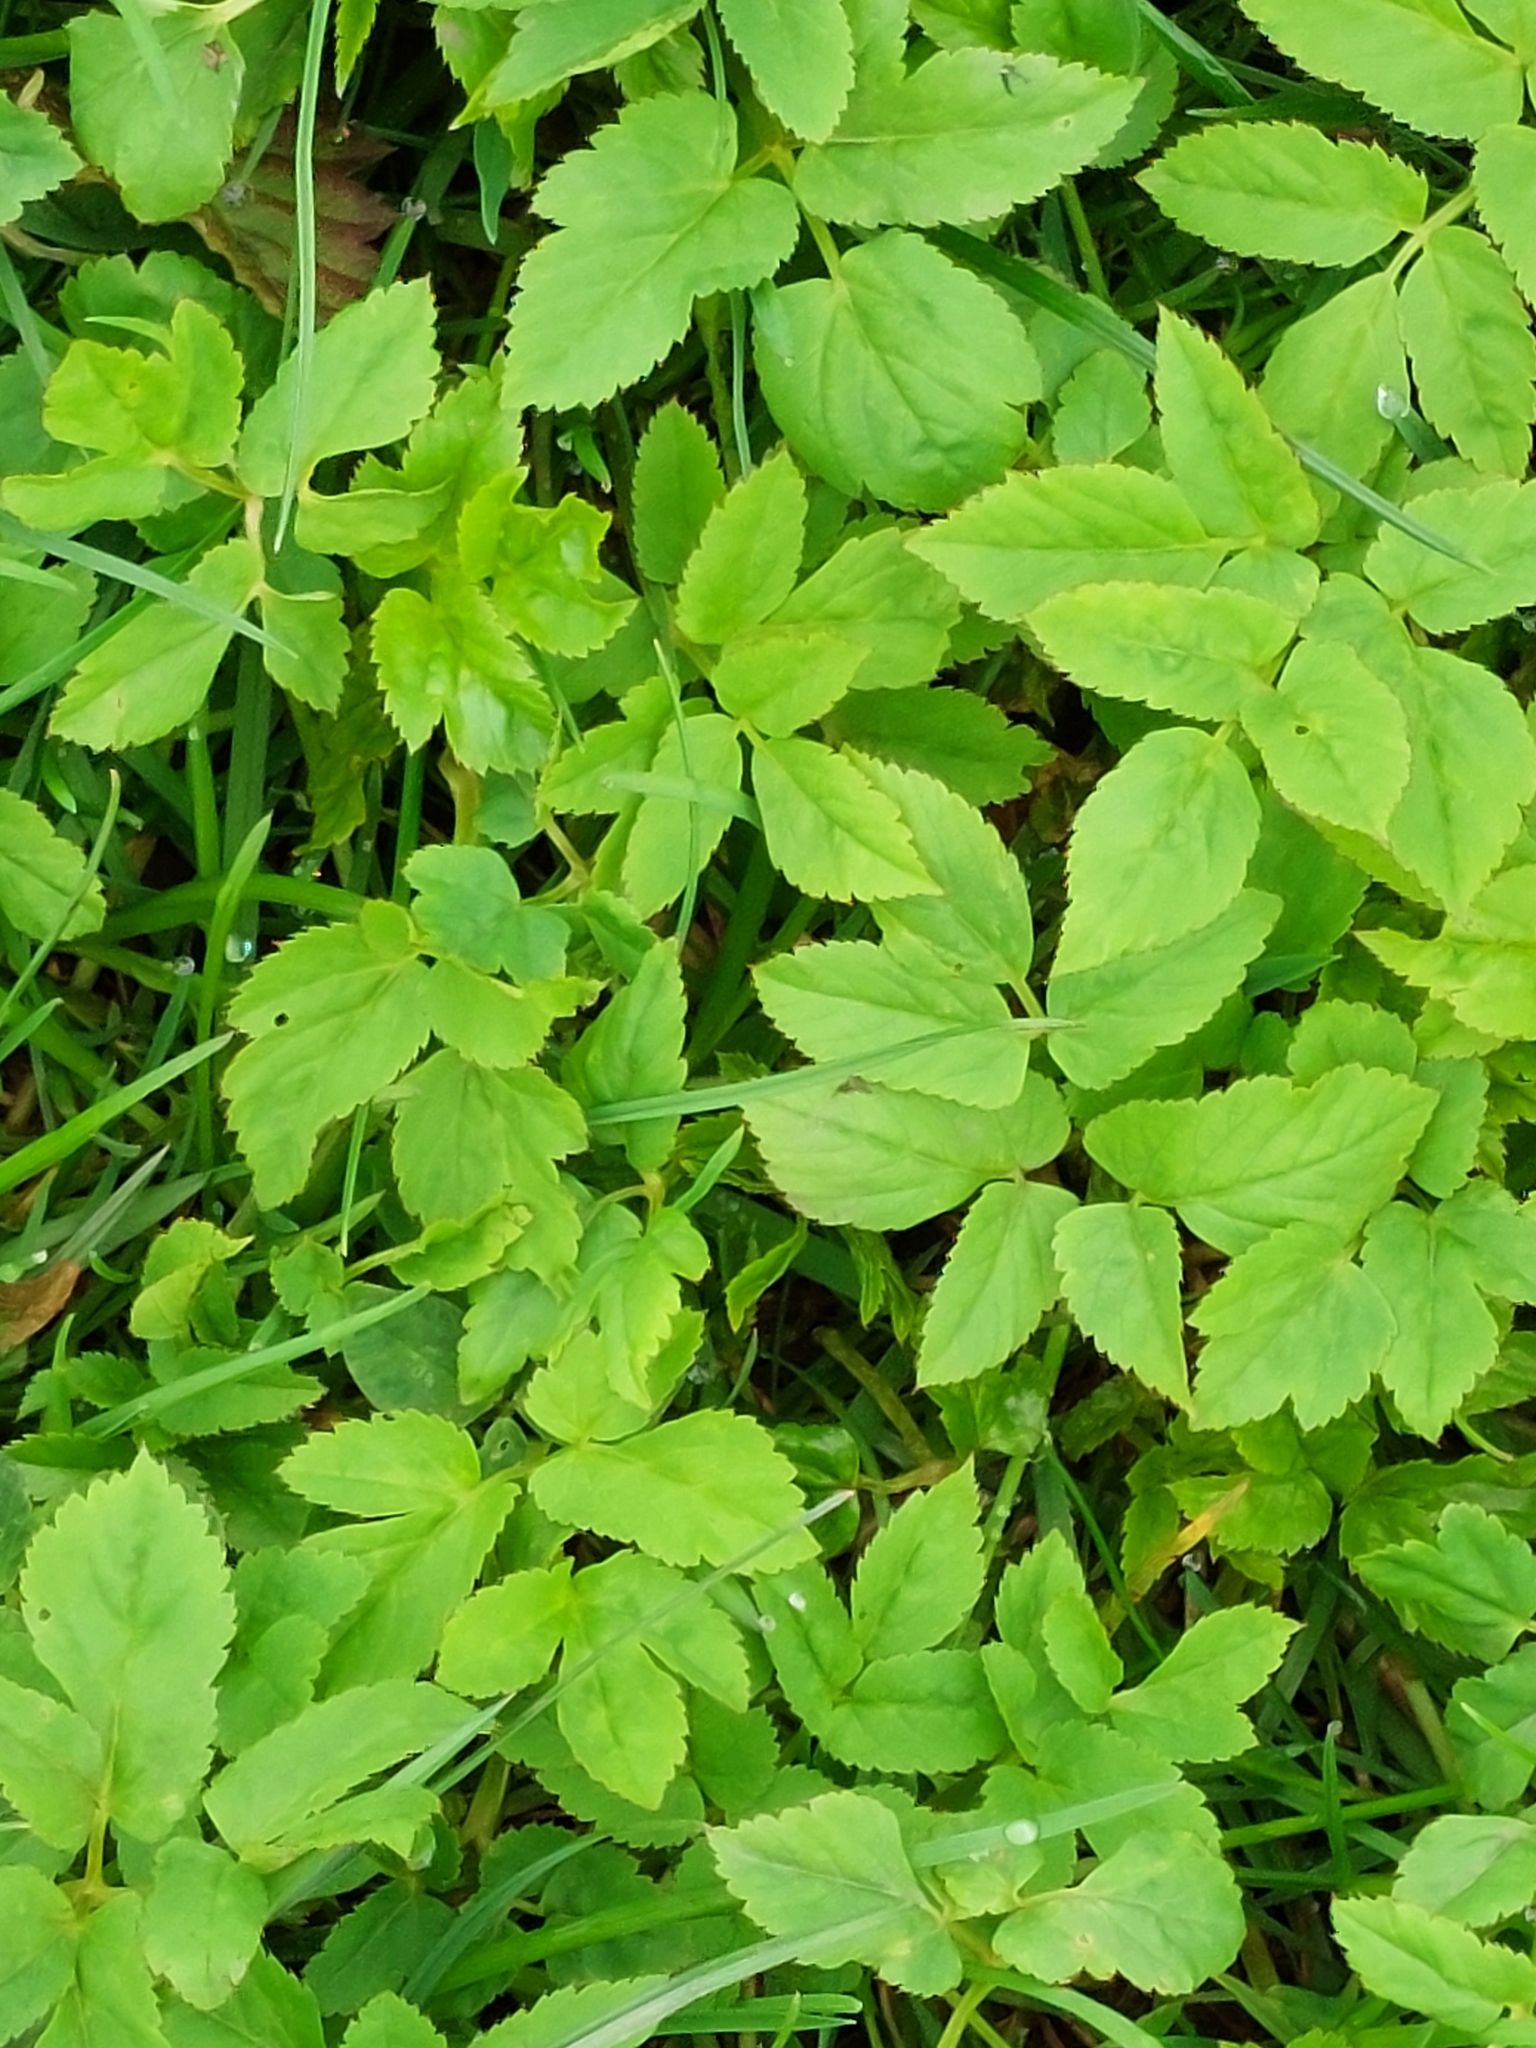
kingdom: Plantae
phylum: Tracheophyta
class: Magnoliopsida
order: Apiales
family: Apiaceae
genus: Aegopodium
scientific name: Aegopodium podagraria
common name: Ground-elder
